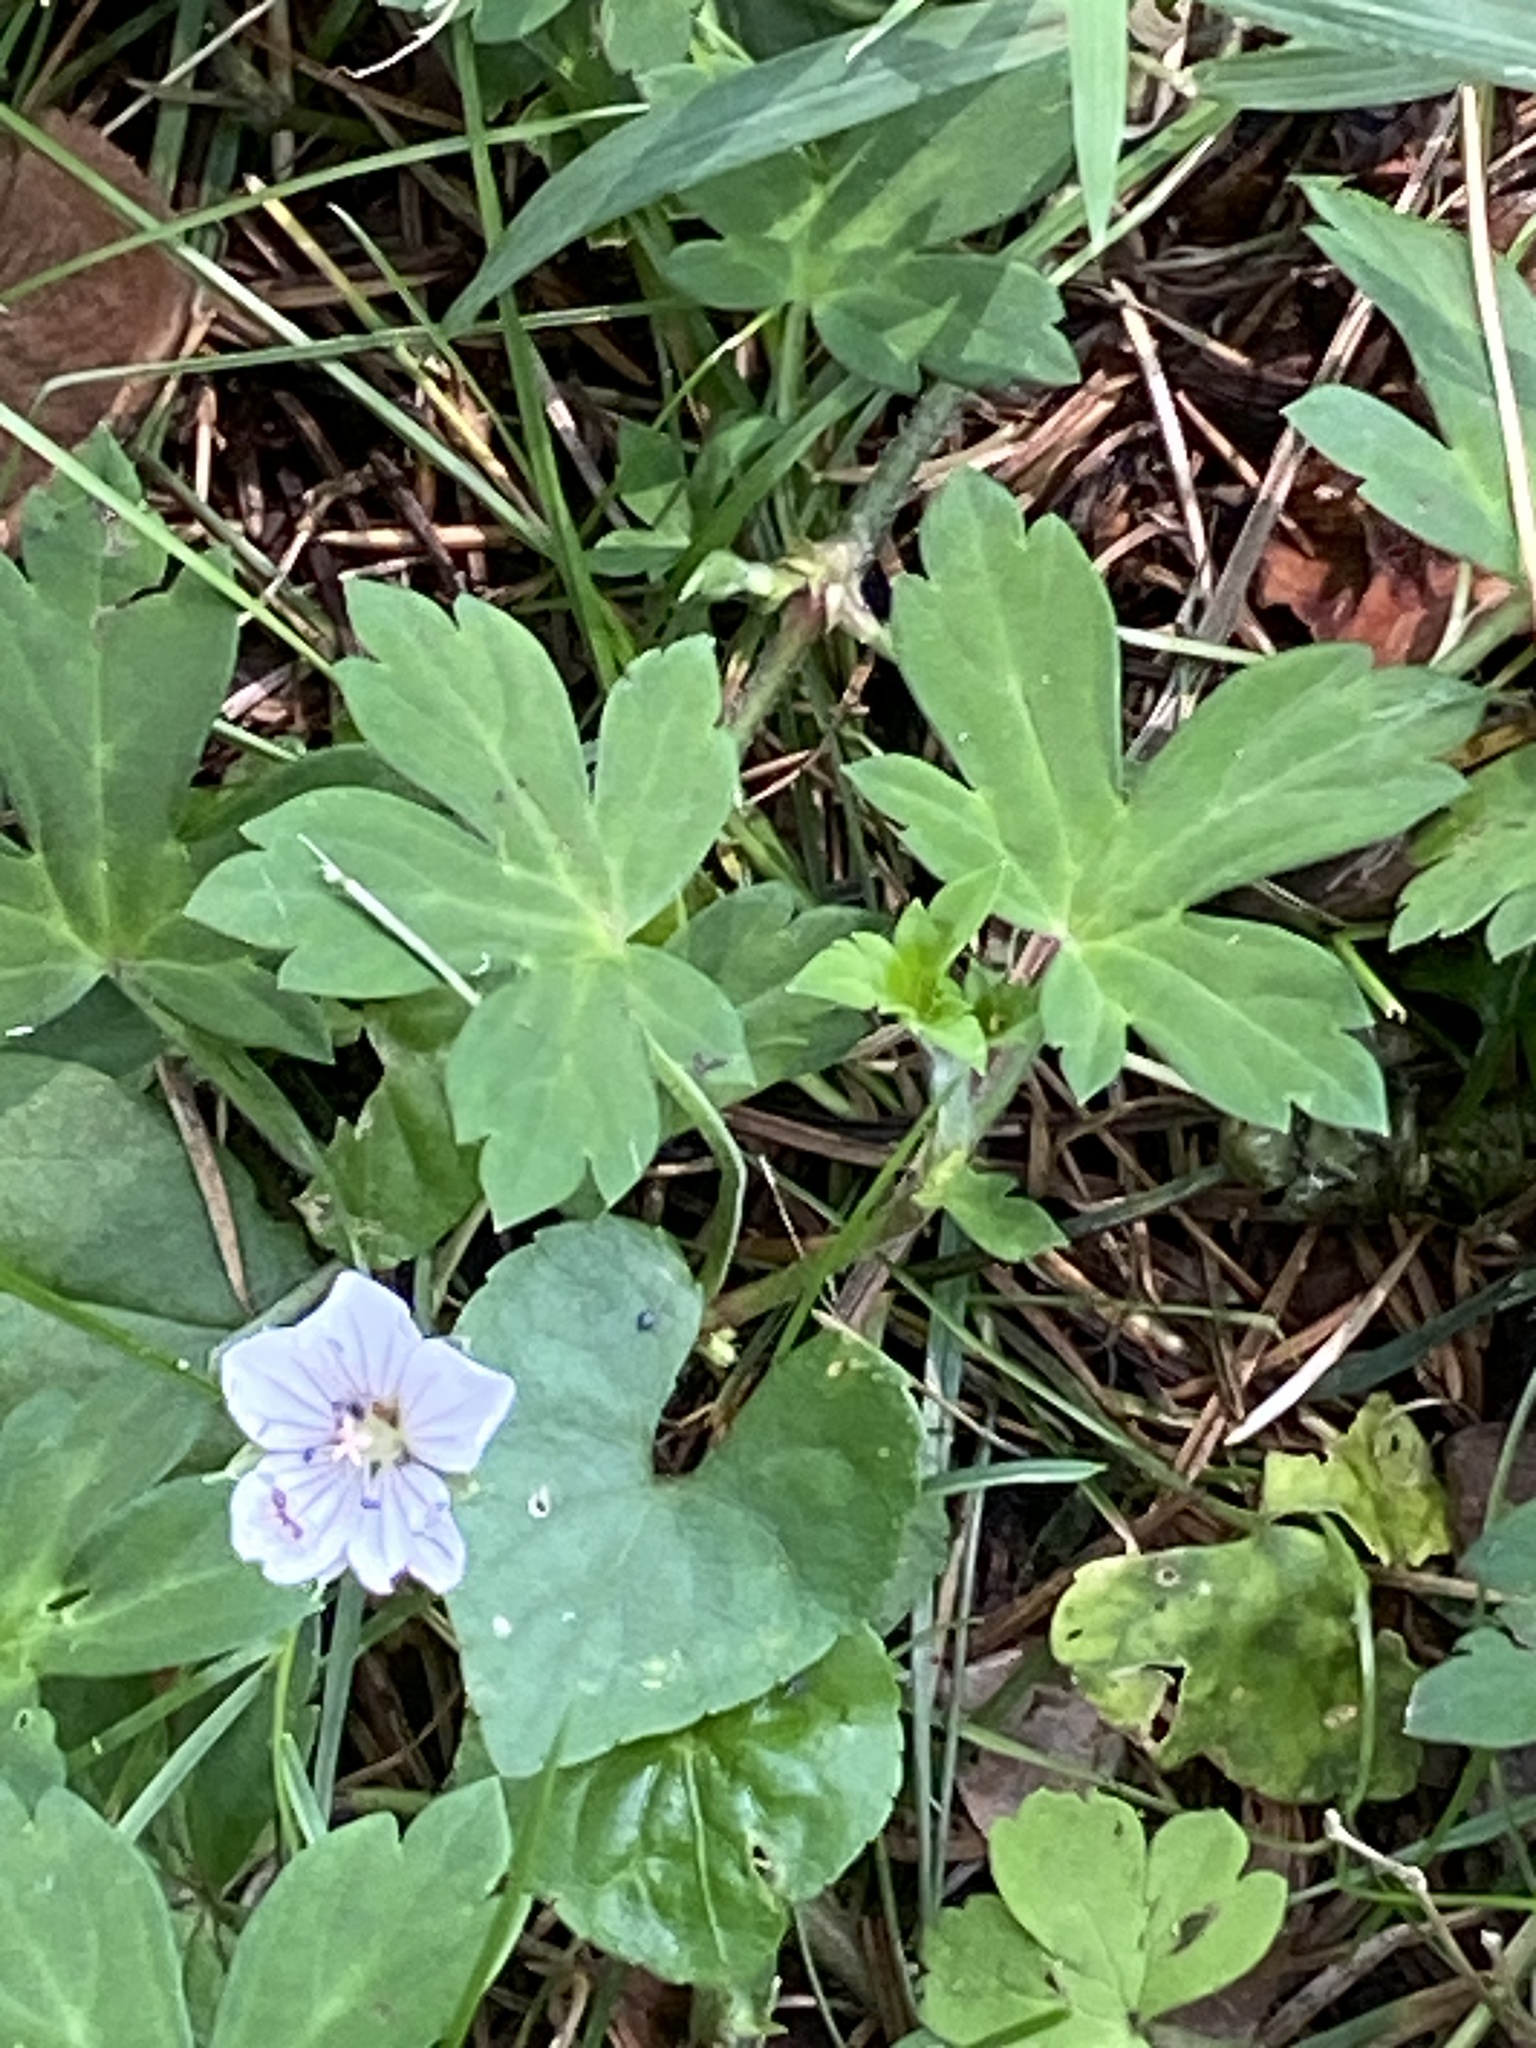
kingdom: Plantae
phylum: Tracheophyta
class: Magnoliopsida
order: Geraniales
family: Geraniaceae
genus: Geranium
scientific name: Geranium thunbergii
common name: Dewdrop crane's-bill
